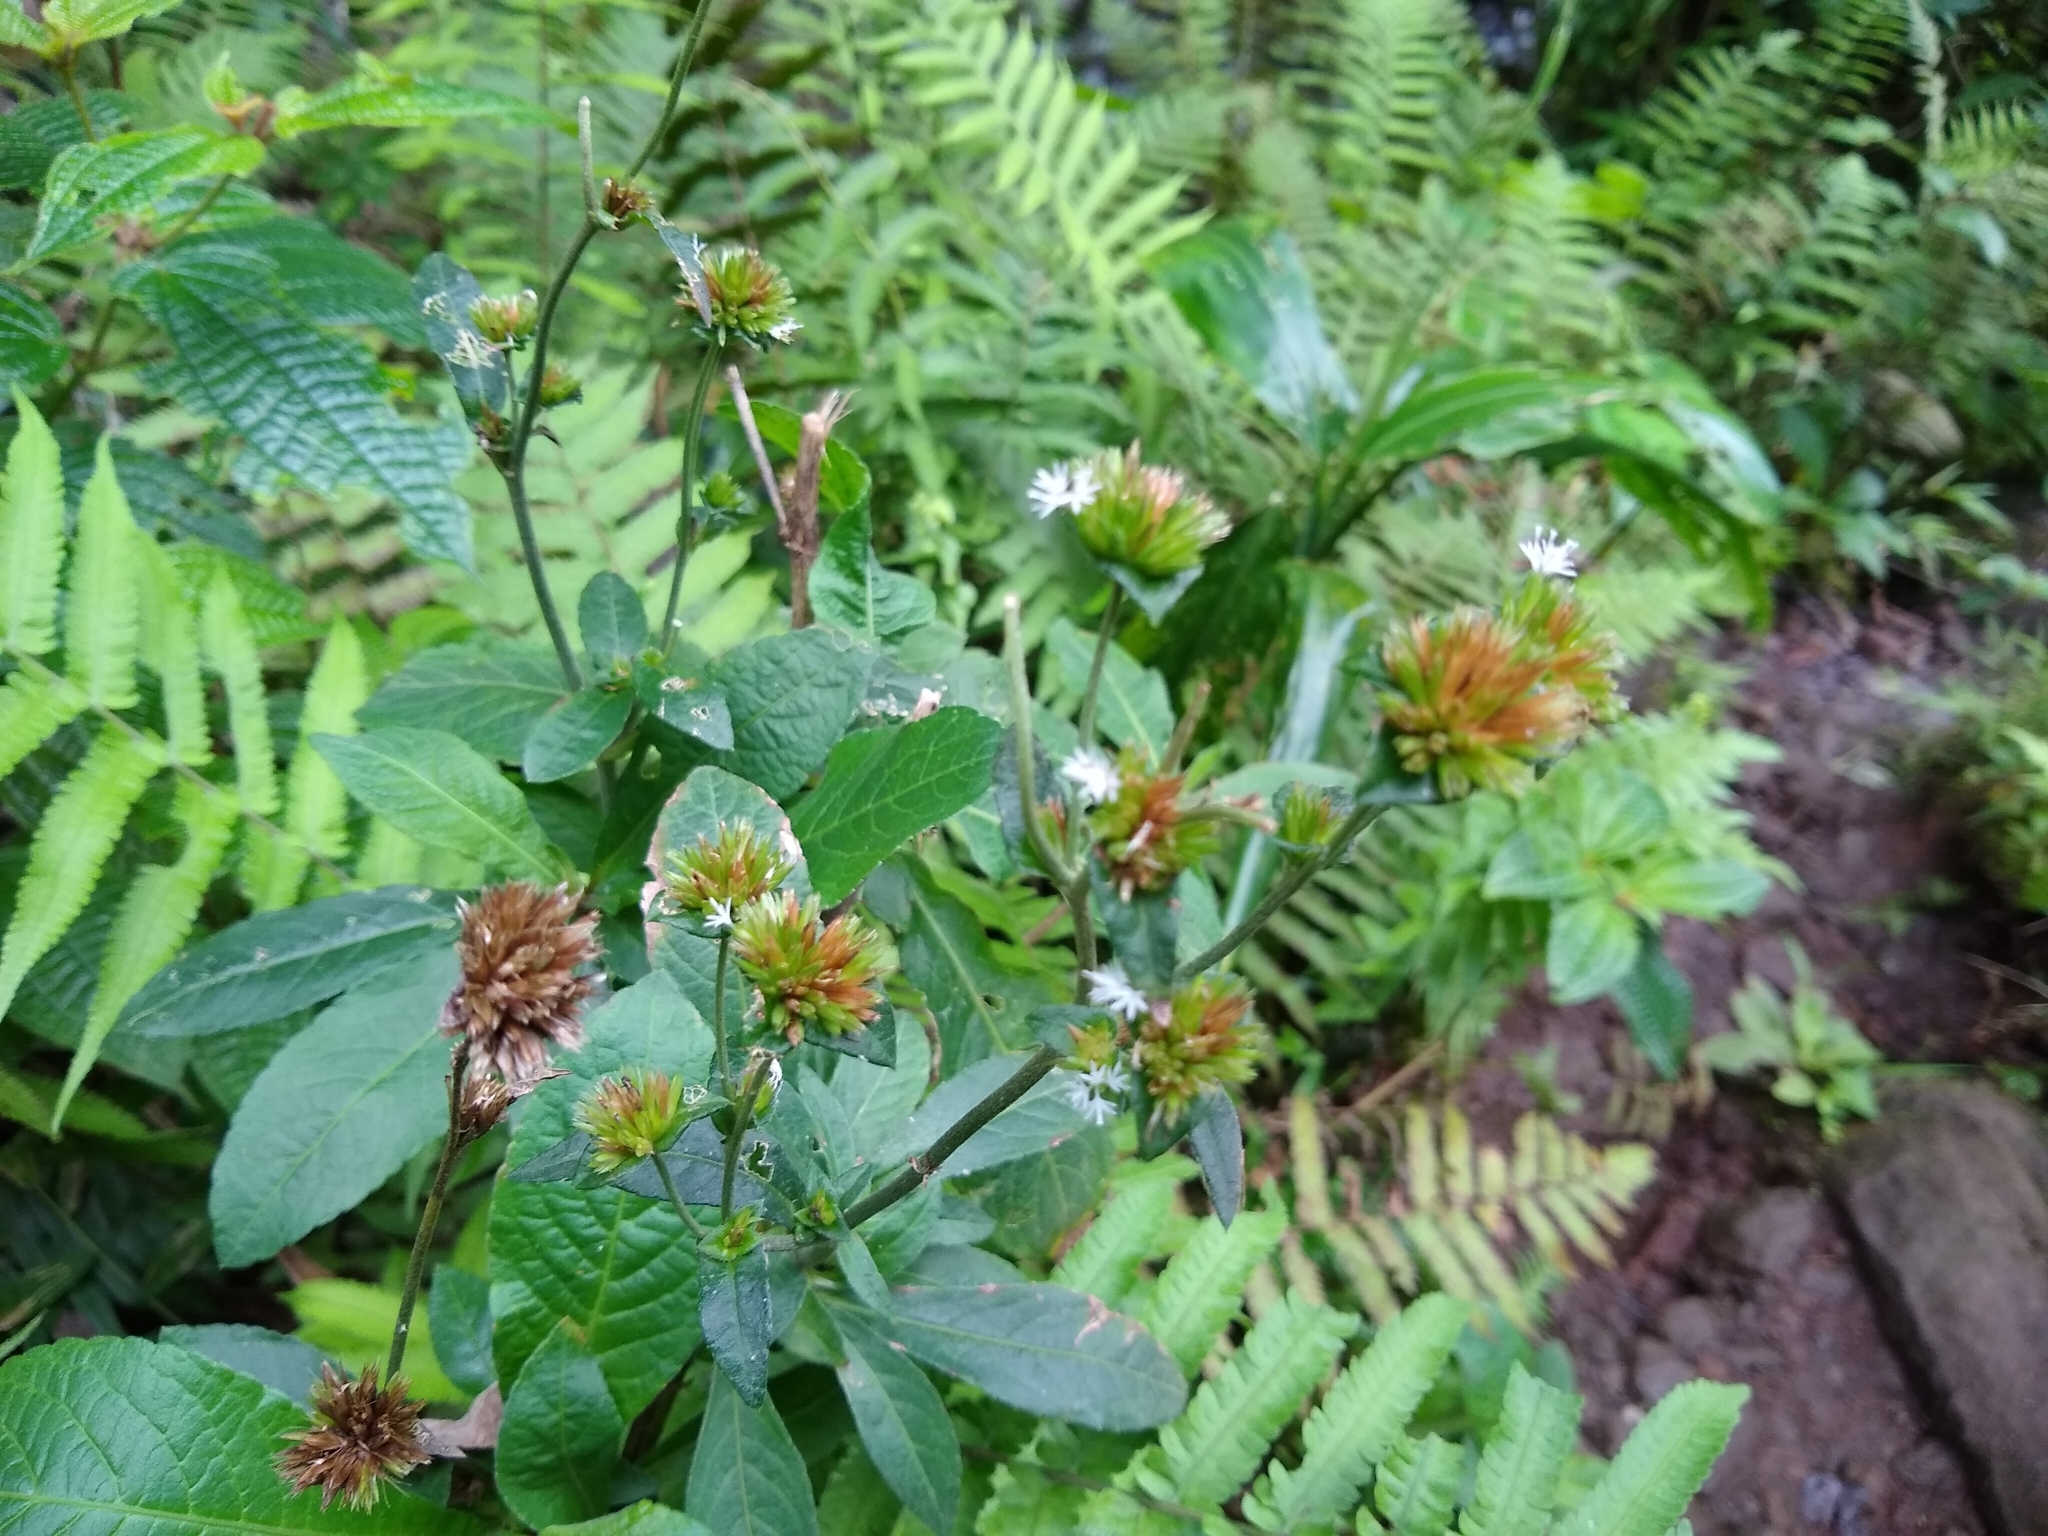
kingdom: Plantae
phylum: Tracheophyta
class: Magnoliopsida
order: Asterales
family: Asteraceae
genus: Elephantopus
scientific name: Elephantopus mollis
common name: Soft elephantsfoot
